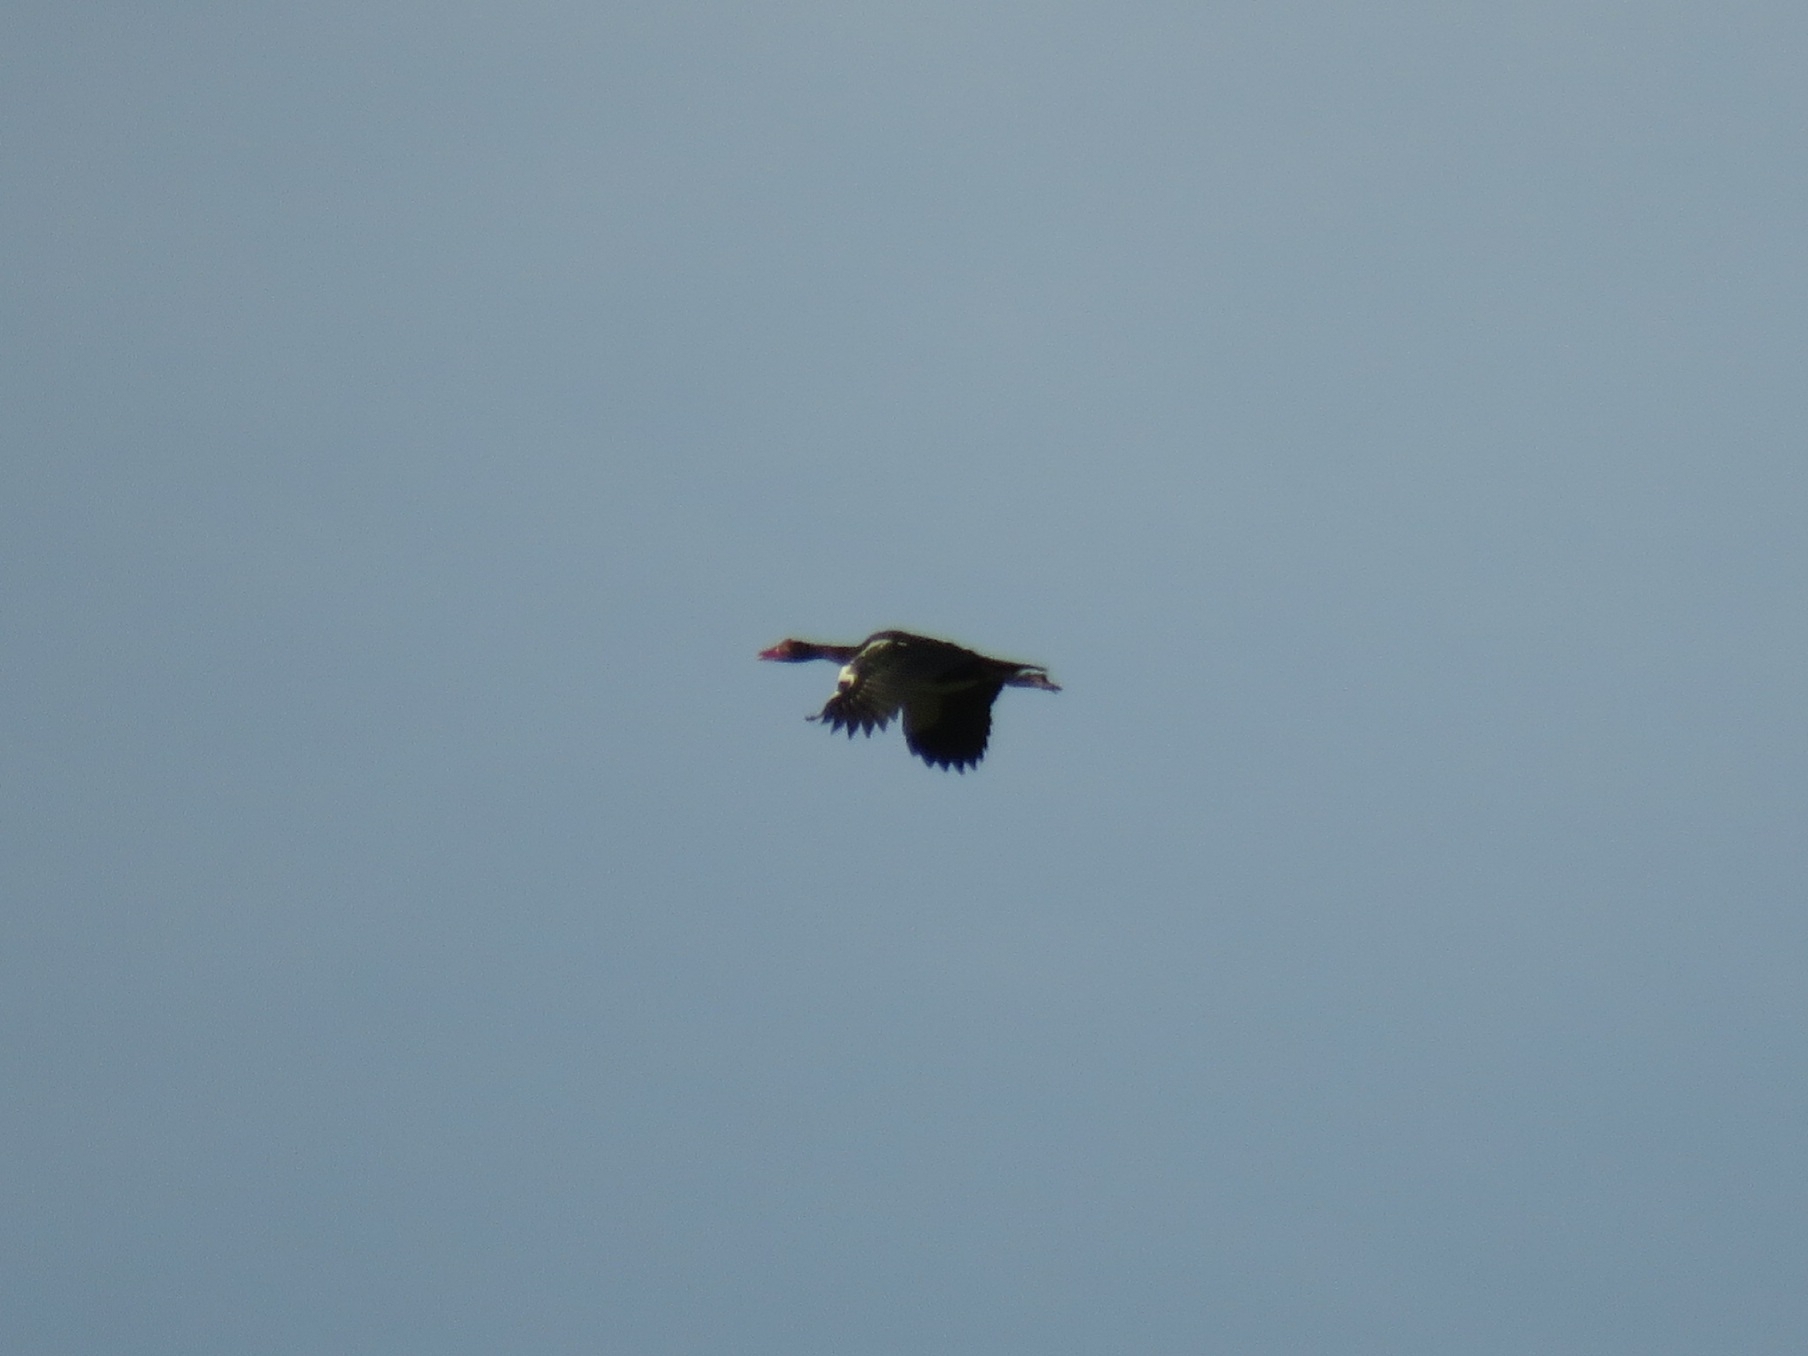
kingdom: Animalia
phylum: Chordata
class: Aves
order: Anseriformes
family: Anatidae
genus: Plectropterus
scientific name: Plectropterus gambensis
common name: Spur-winged goose
